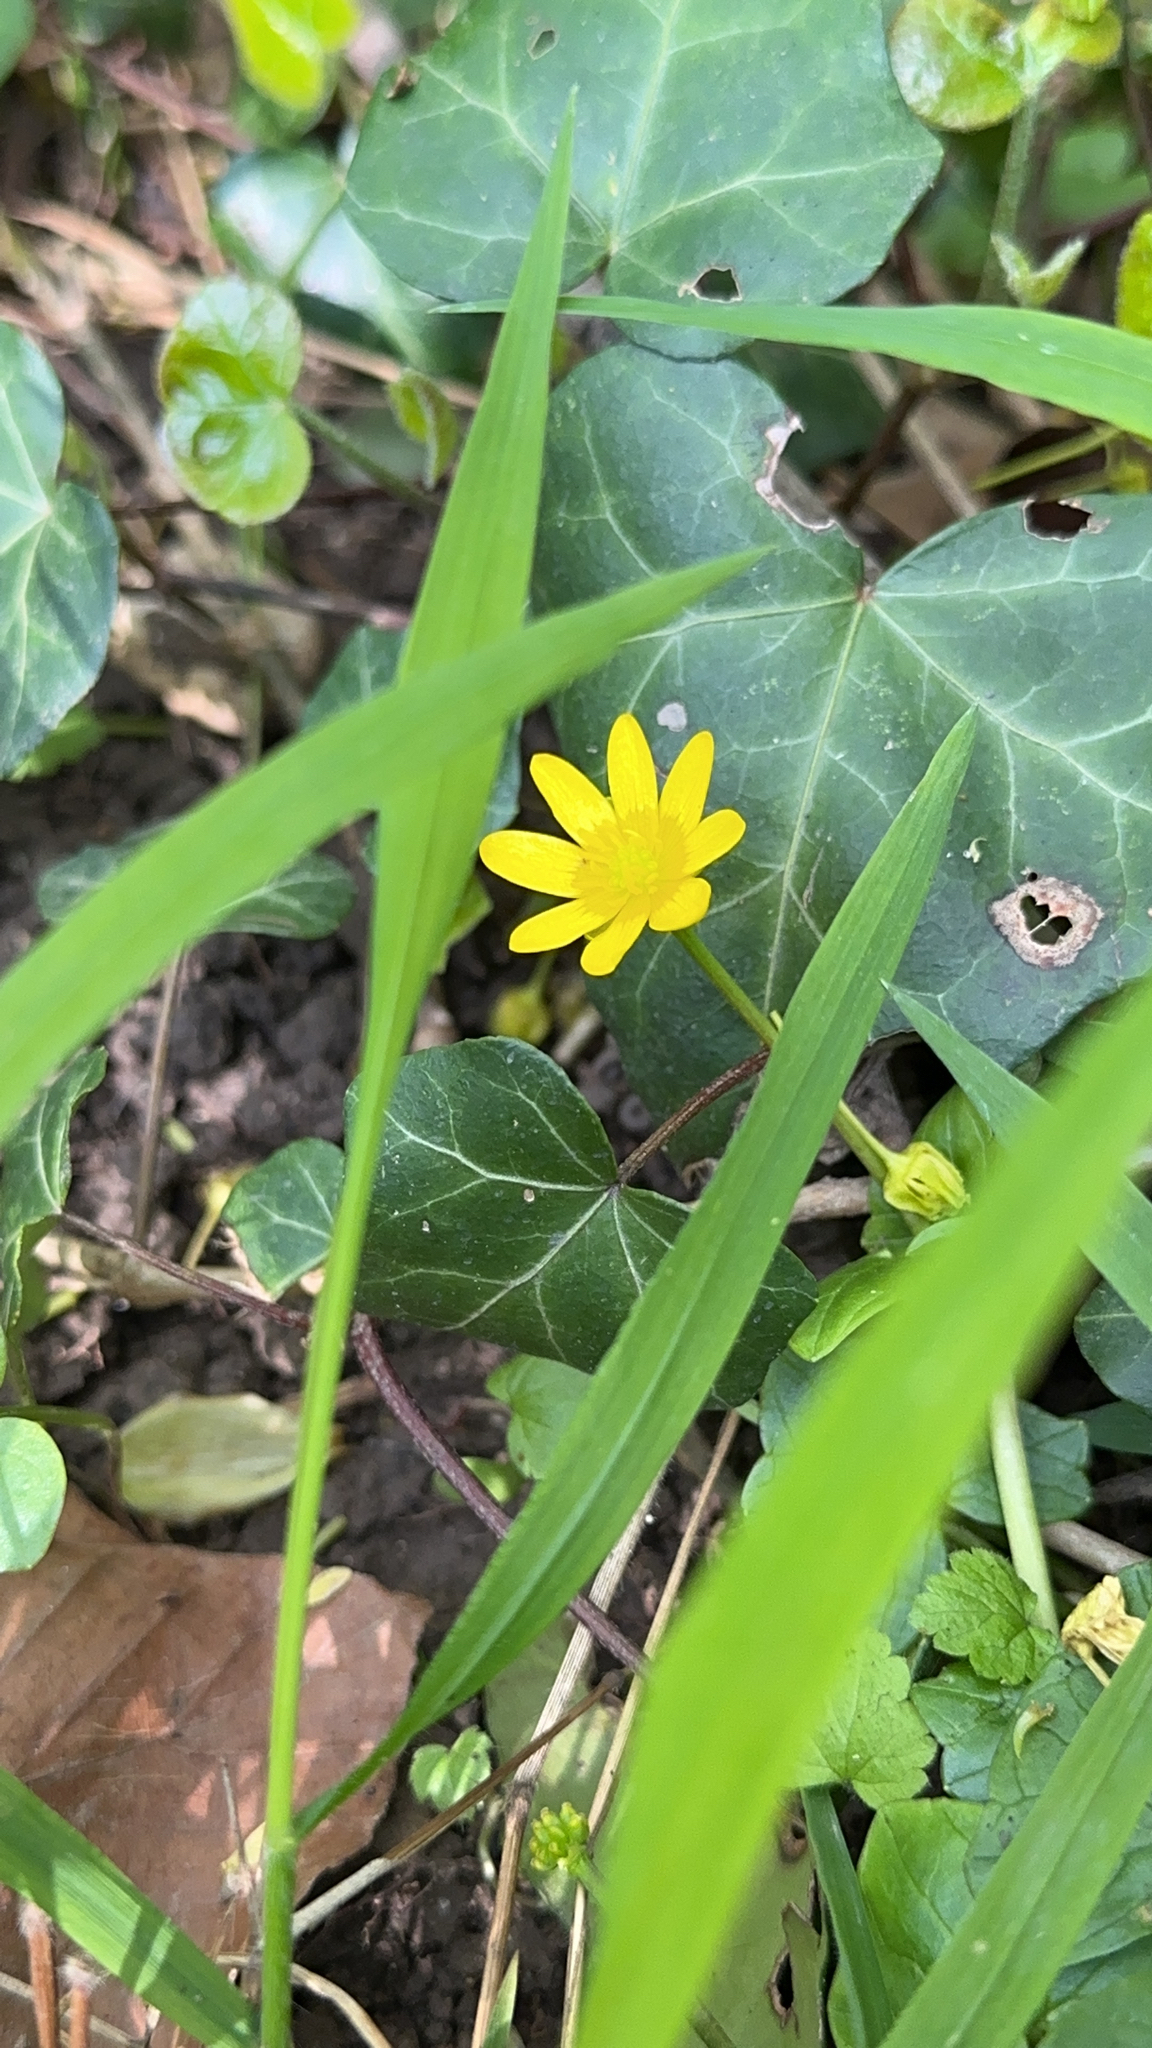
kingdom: Plantae
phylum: Tracheophyta
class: Magnoliopsida
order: Ranunculales
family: Ranunculaceae
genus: Ficaria
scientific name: Ficaria verna
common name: Lesser celandine
